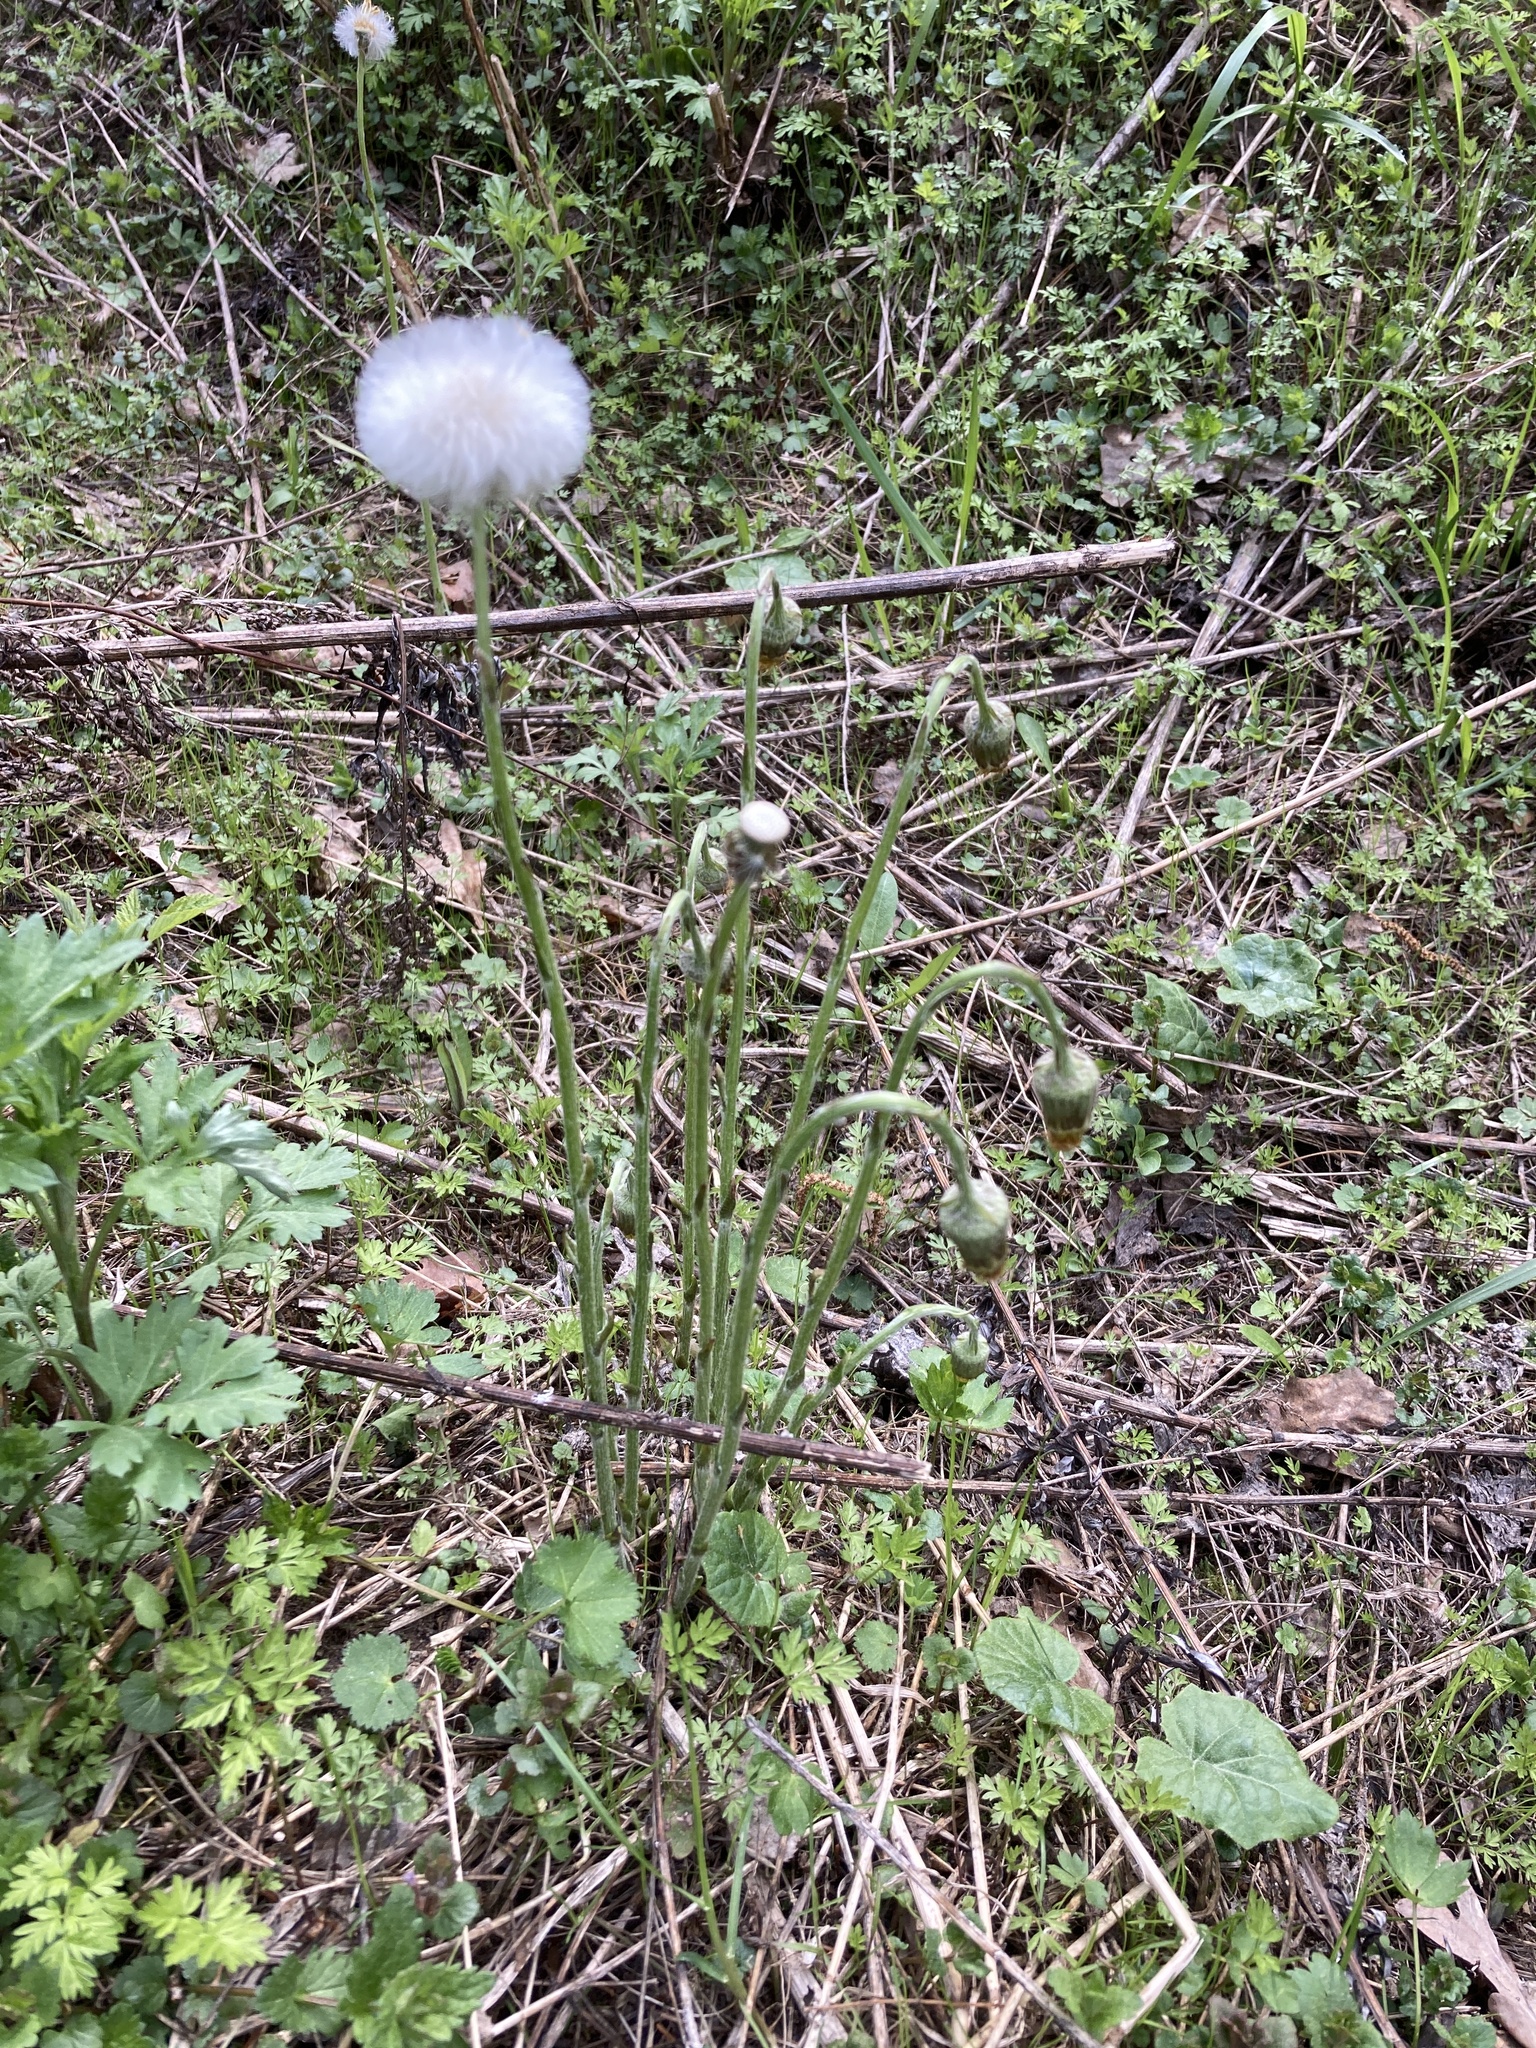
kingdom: Plantae
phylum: Tracheophyta
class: Magnoliopsida
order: Asterales
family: Asteraceae
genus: Tussilago
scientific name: Tussilago farfara
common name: Coltsfoot
